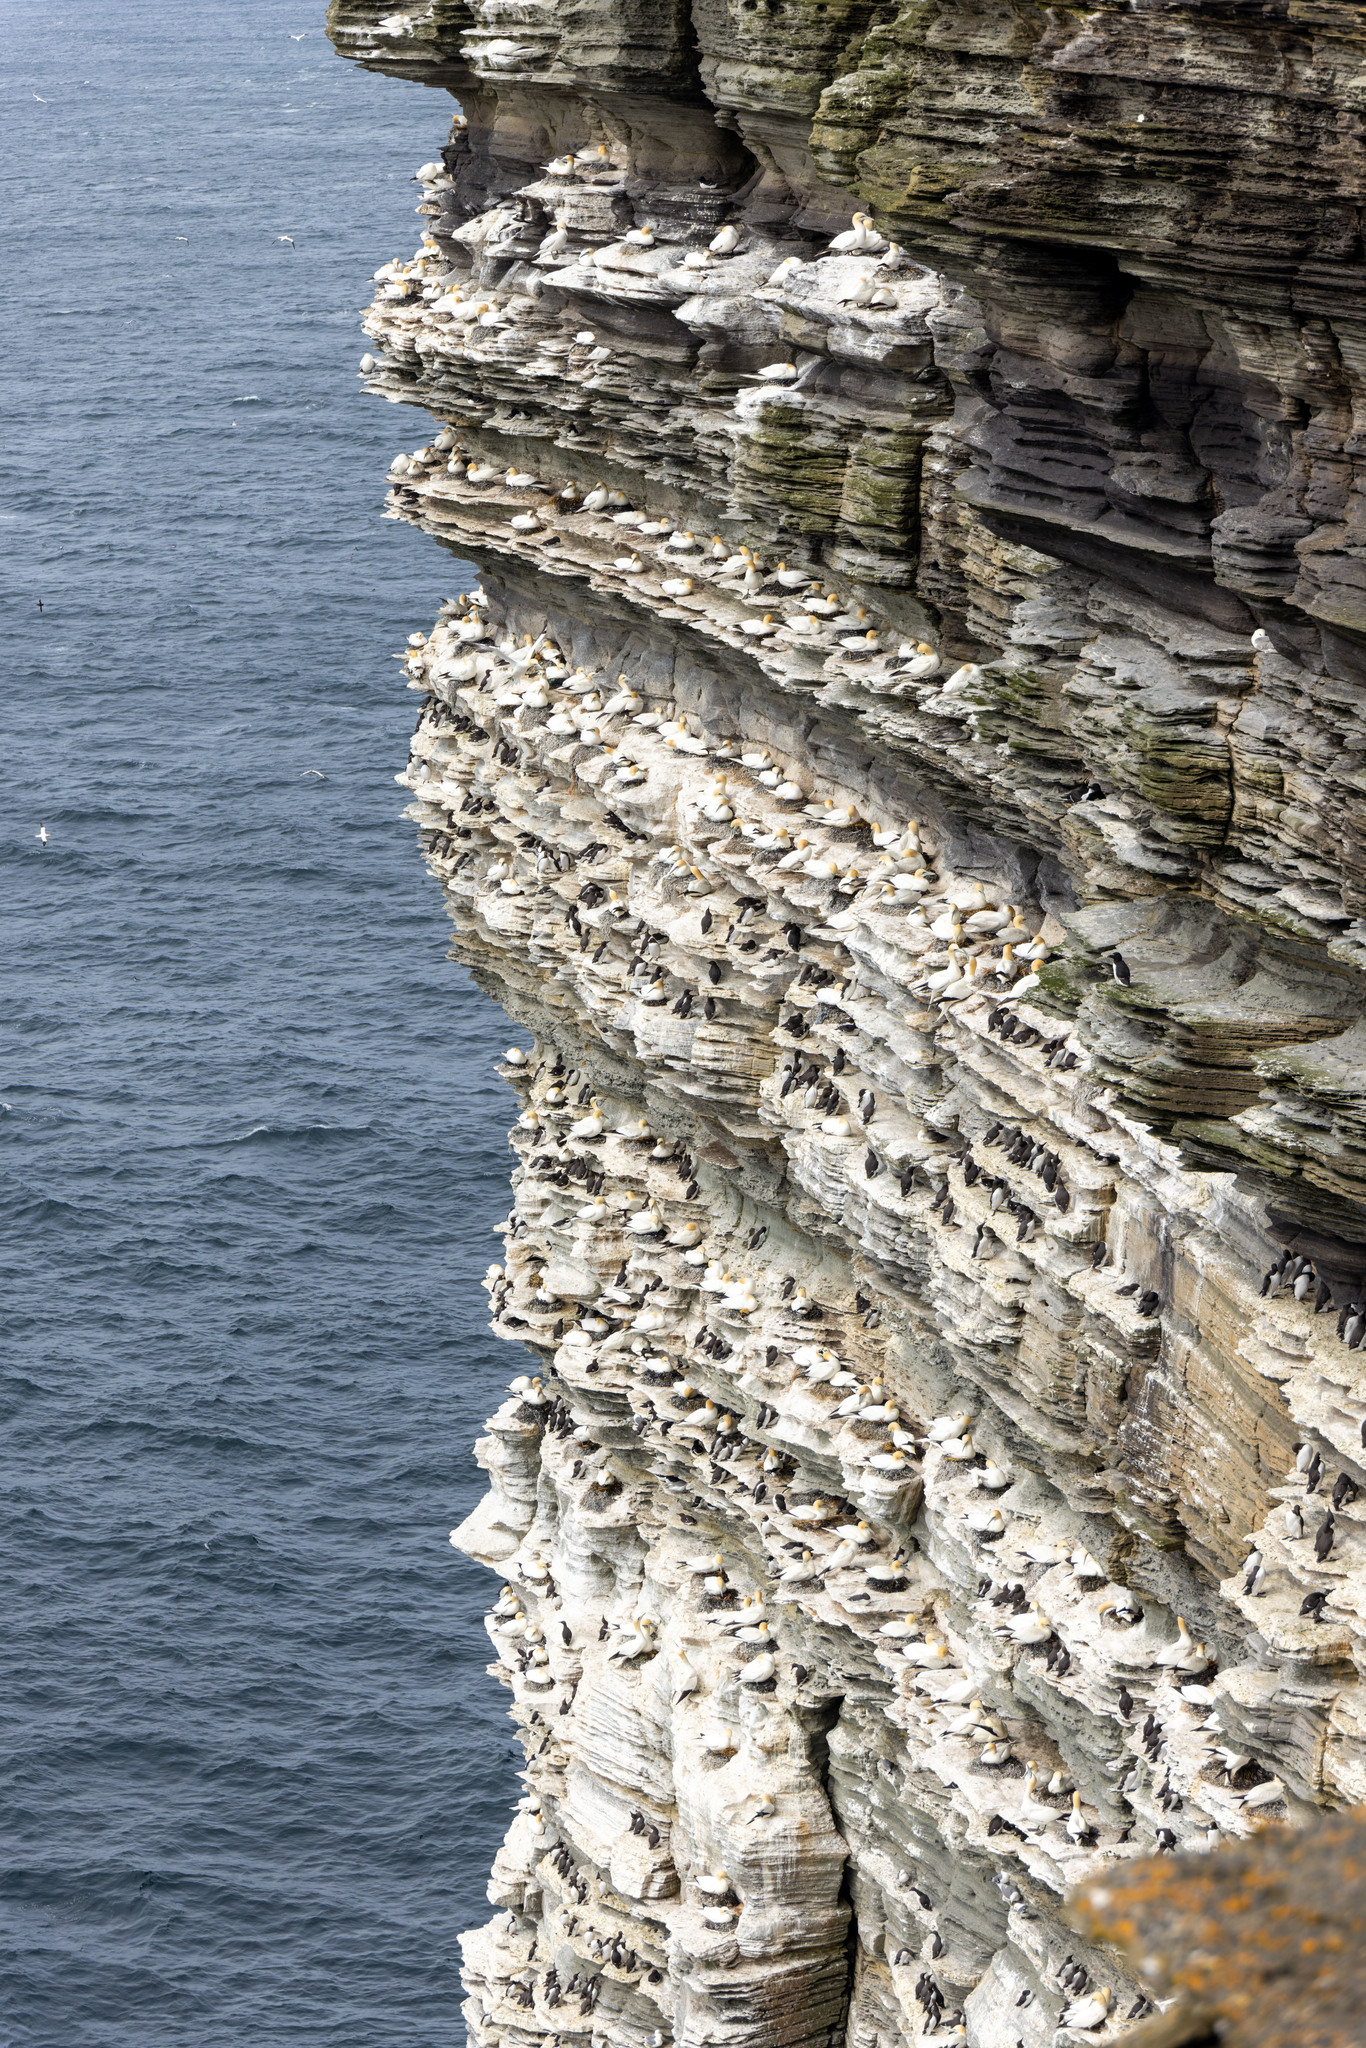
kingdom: Animalia
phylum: Chordata
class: Aves
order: Suliformes
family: Sulidae
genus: Morus
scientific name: Morus bassanus
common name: Northern gannet
